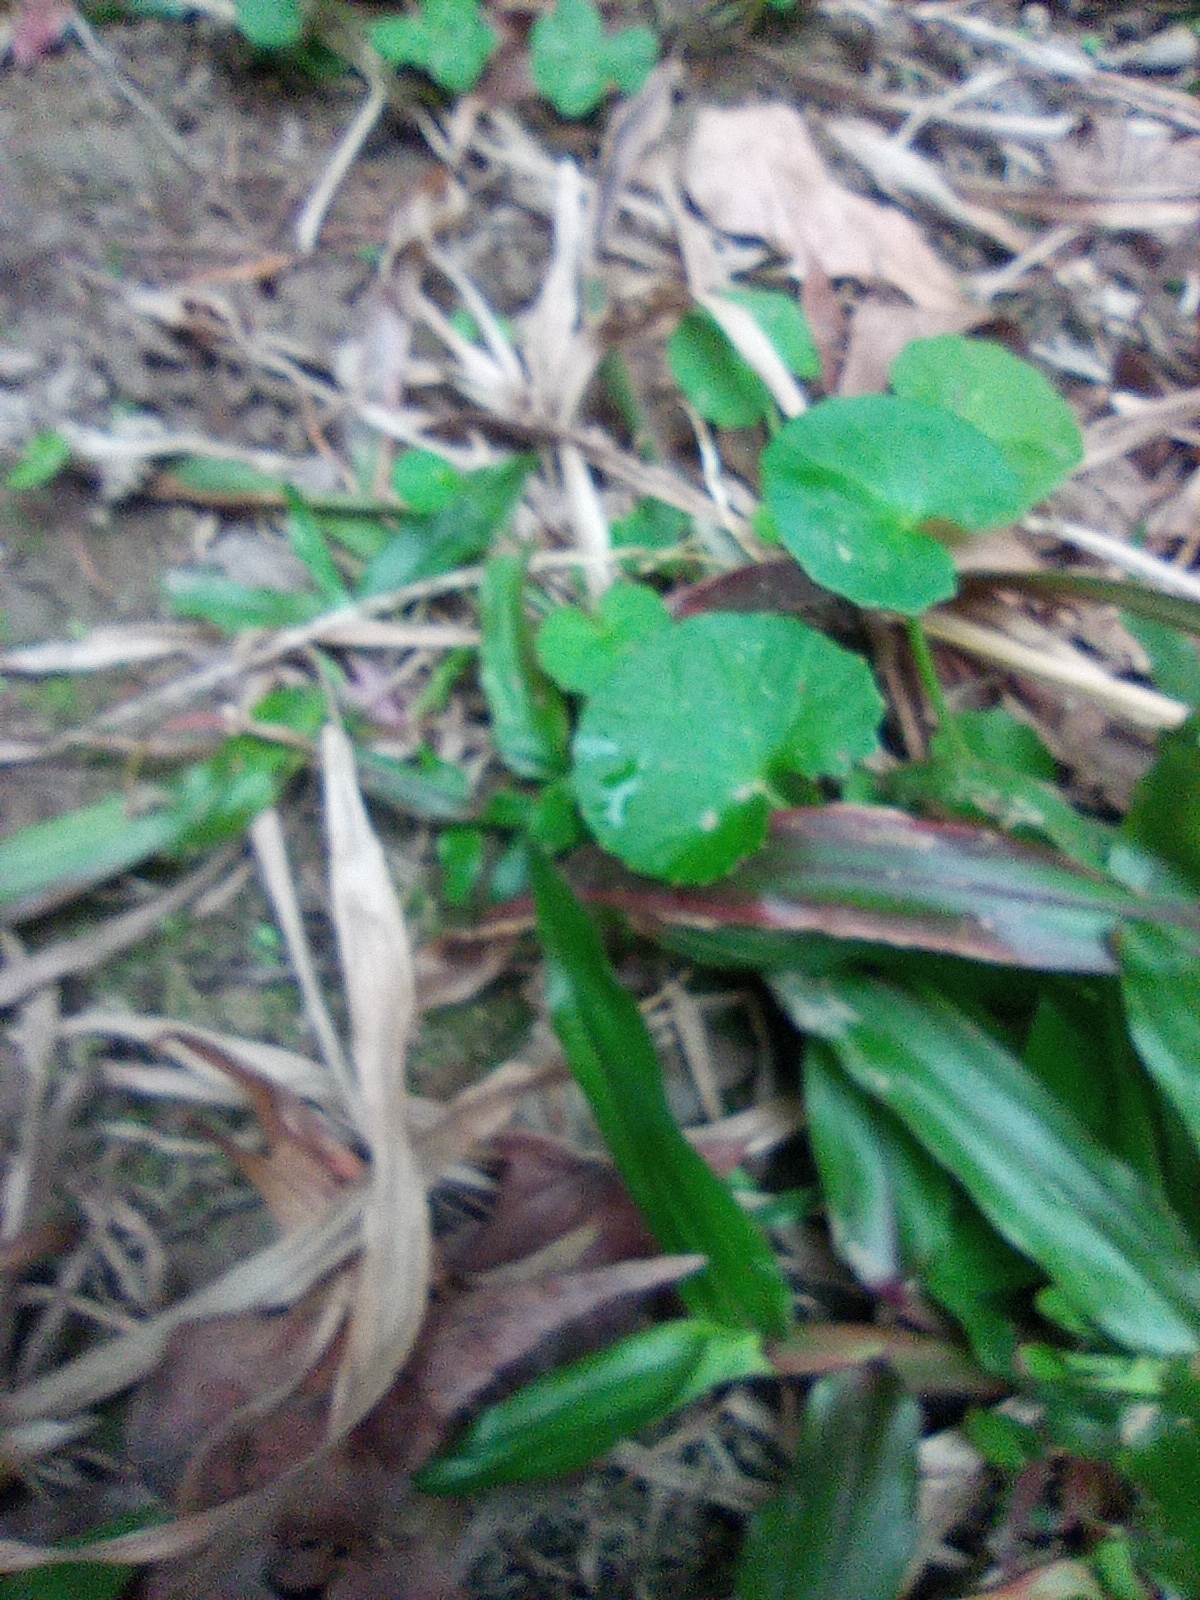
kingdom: Plantae
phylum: Tracheophyta
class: Magnoliopsida
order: Apiales
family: Apiaceae
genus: Centella
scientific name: Centella asiatica
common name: Spadeleaf
